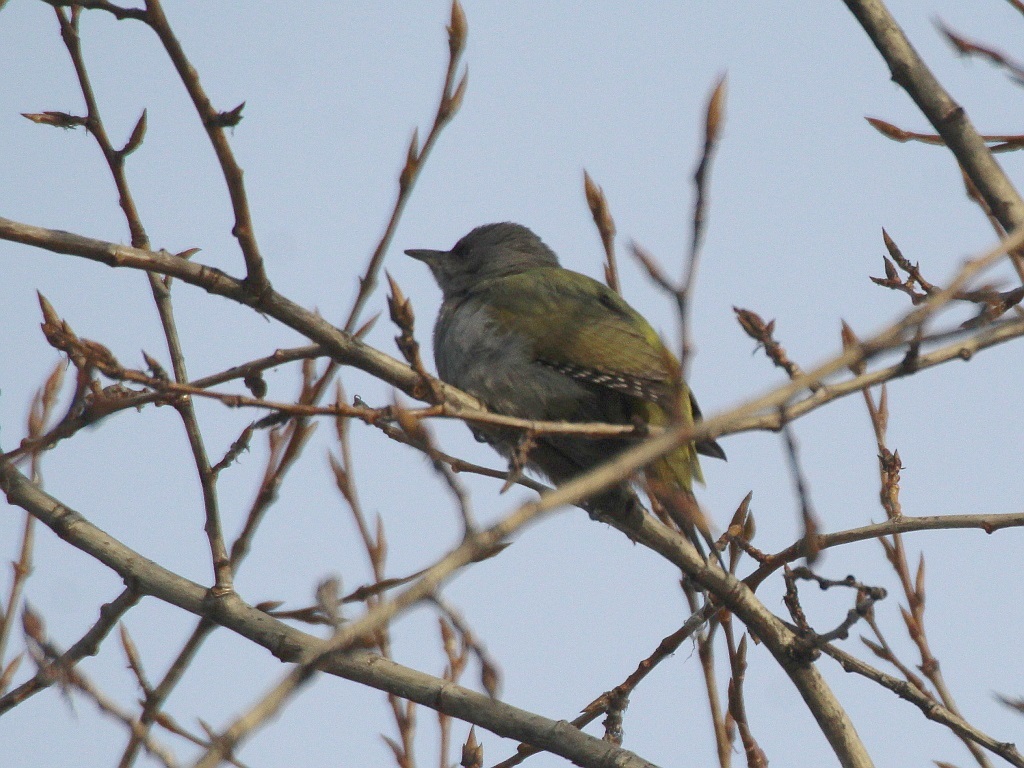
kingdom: Animalia
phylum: Chordata
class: Aves
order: Piciformes
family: Picidae
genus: Picus
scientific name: Picus canus
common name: Grey-headed woodpecker
